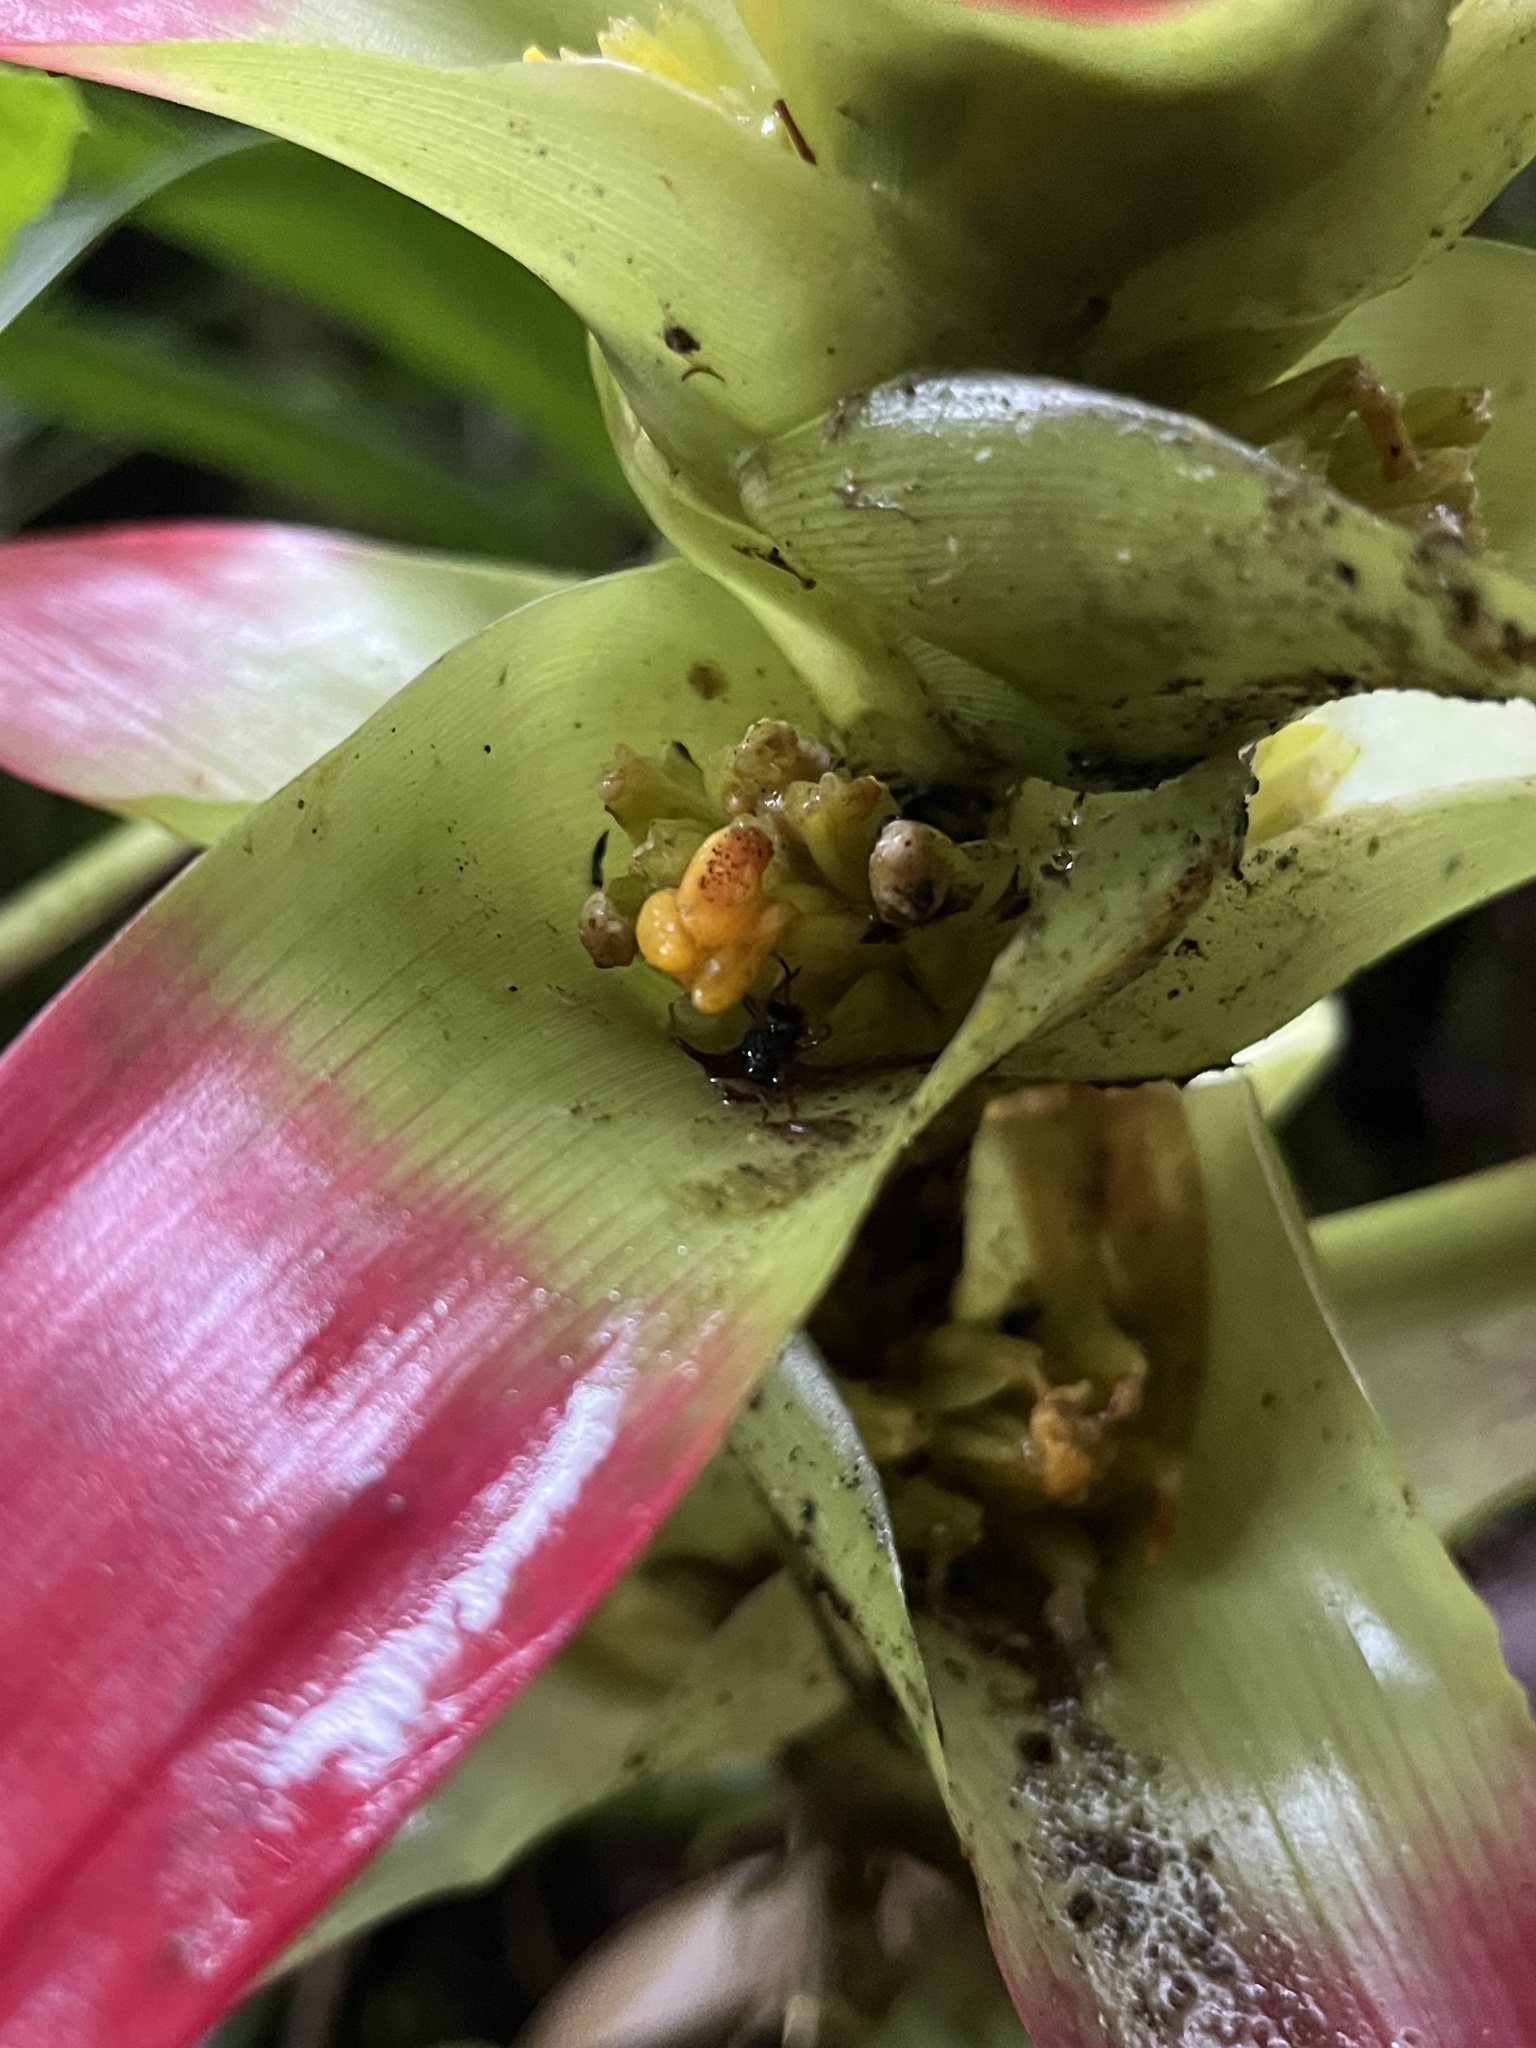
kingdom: Plantae
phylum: Tracheophyta
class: Liliopsida
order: Poales
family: Bromeliaceae
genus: Guzmania
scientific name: Guzmania squarrosa
